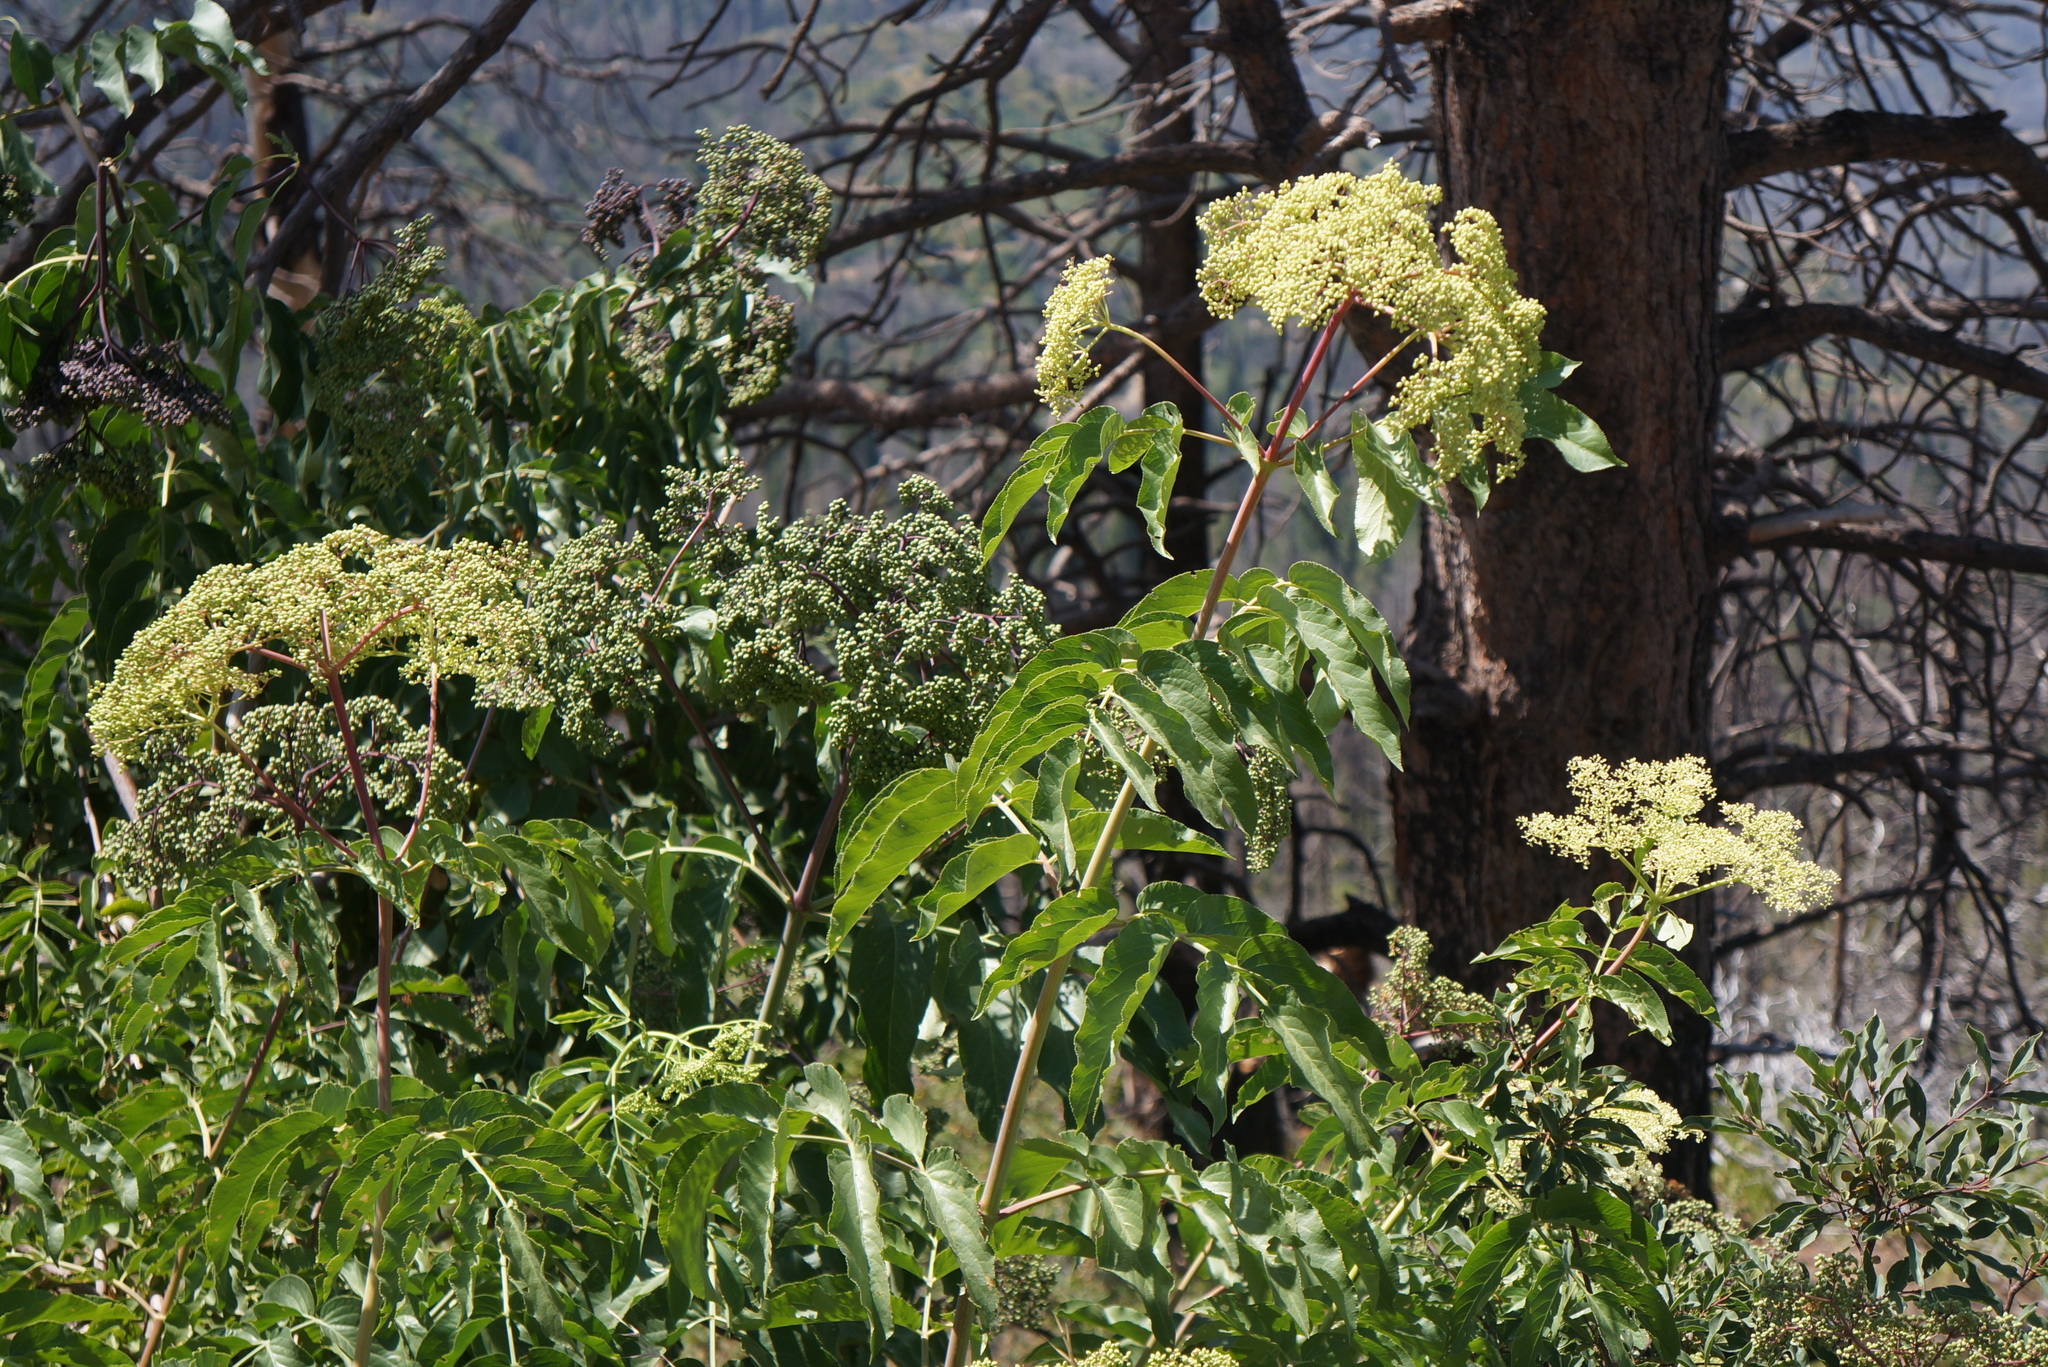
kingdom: Plantae
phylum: Tracheophyta
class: Magnoliopsida
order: Dipsacales
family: Viburnaceae
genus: Sambucus
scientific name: Sambucus cerulea
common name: Blue elder
